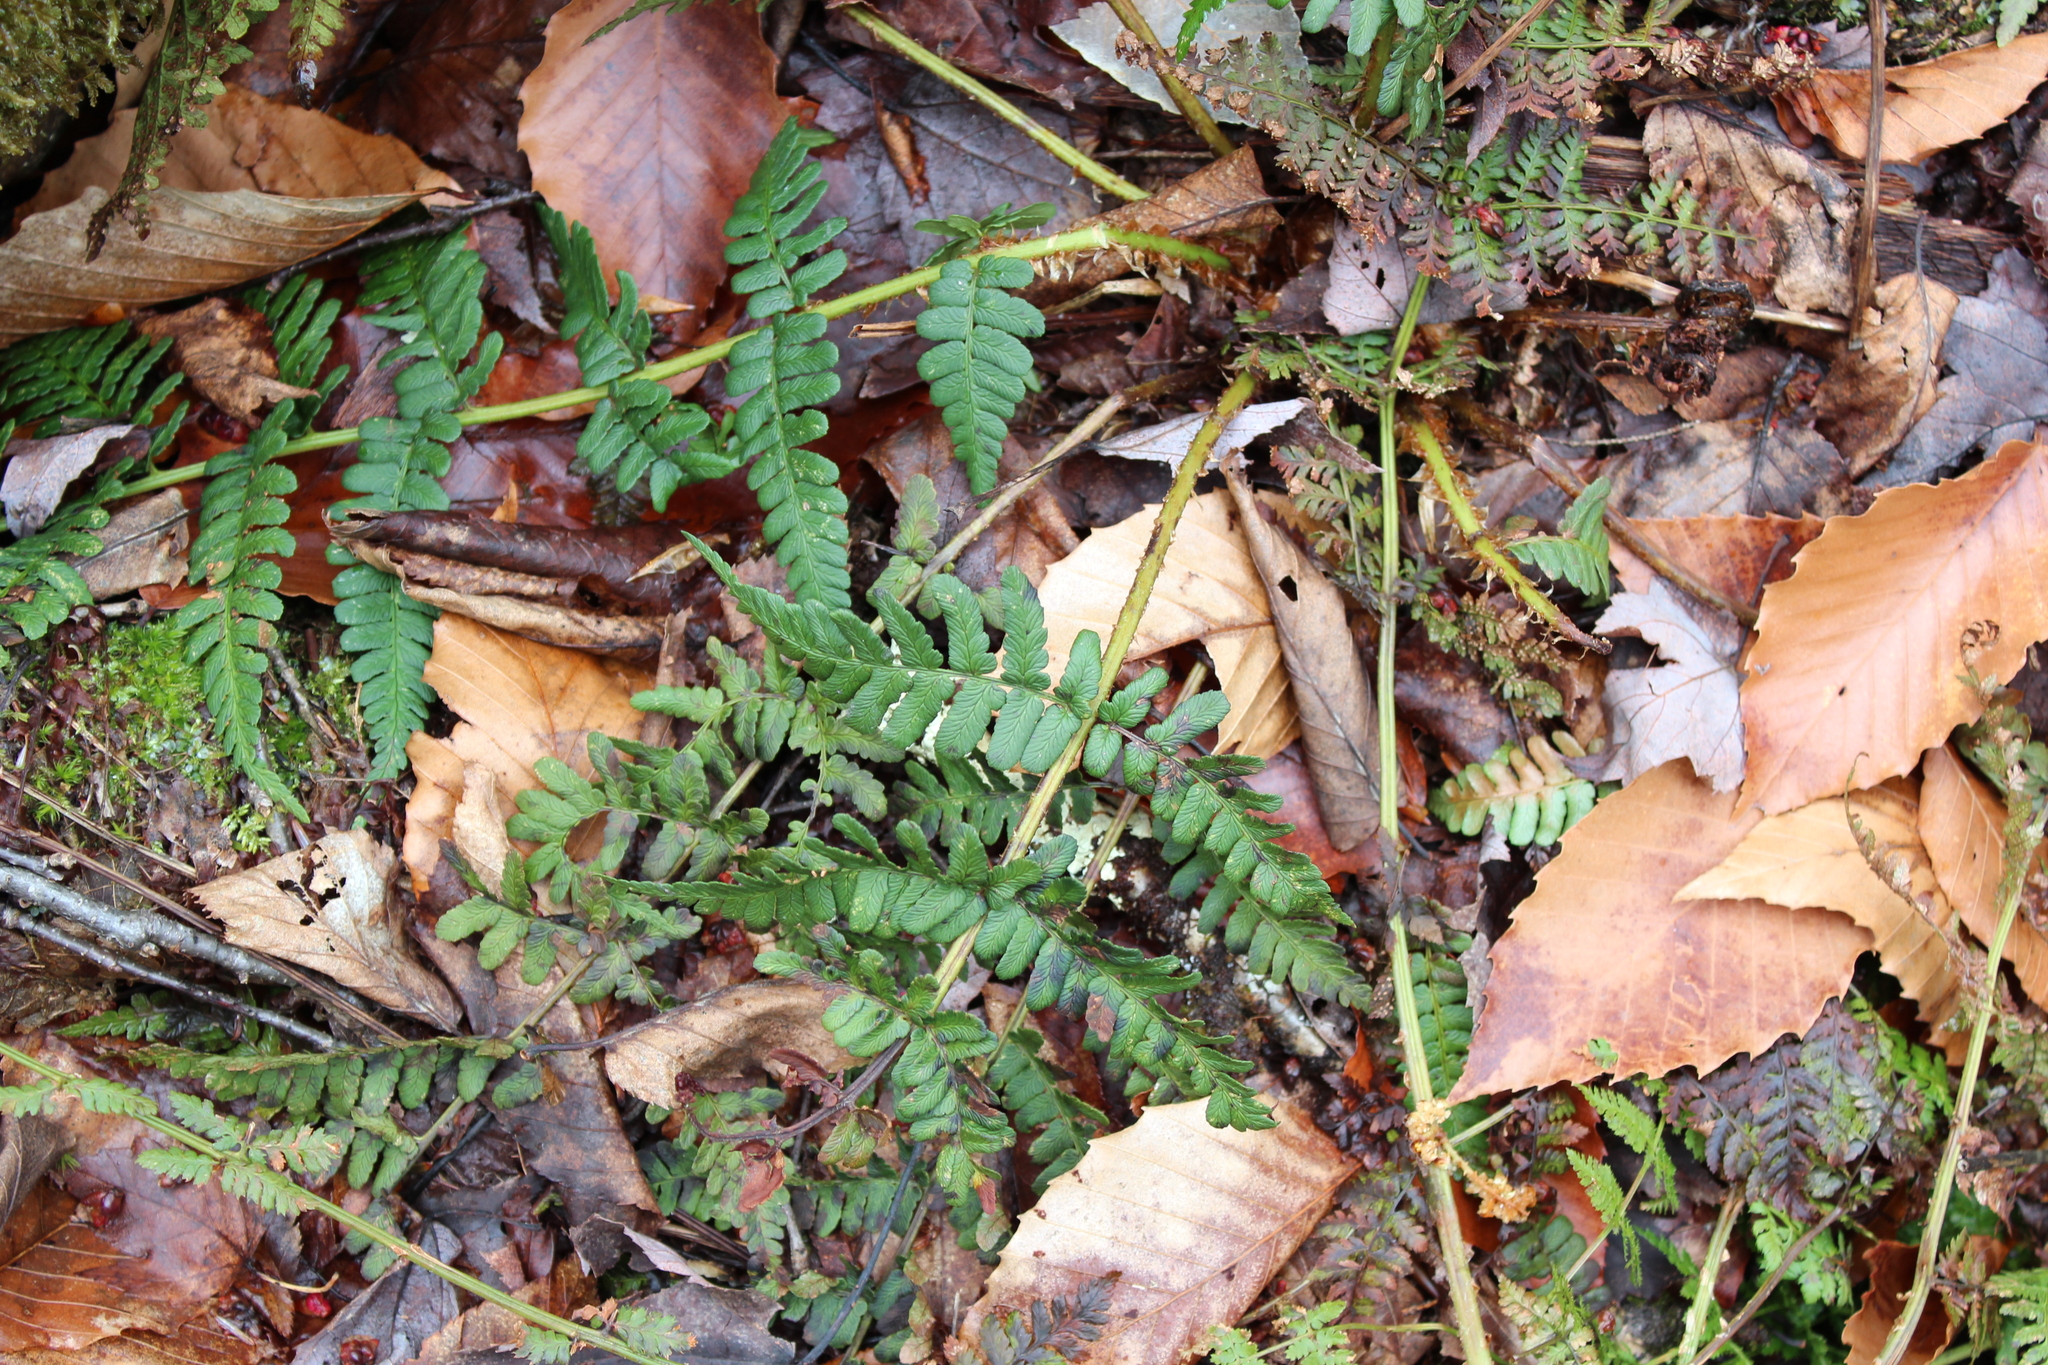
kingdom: Plantae
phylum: Tracheophyta
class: Polypodiopsida
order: Polypodiales
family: Dryopteridaceae
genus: Dryopteris
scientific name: Dryopteris marginalis
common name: Marginal wood fern
